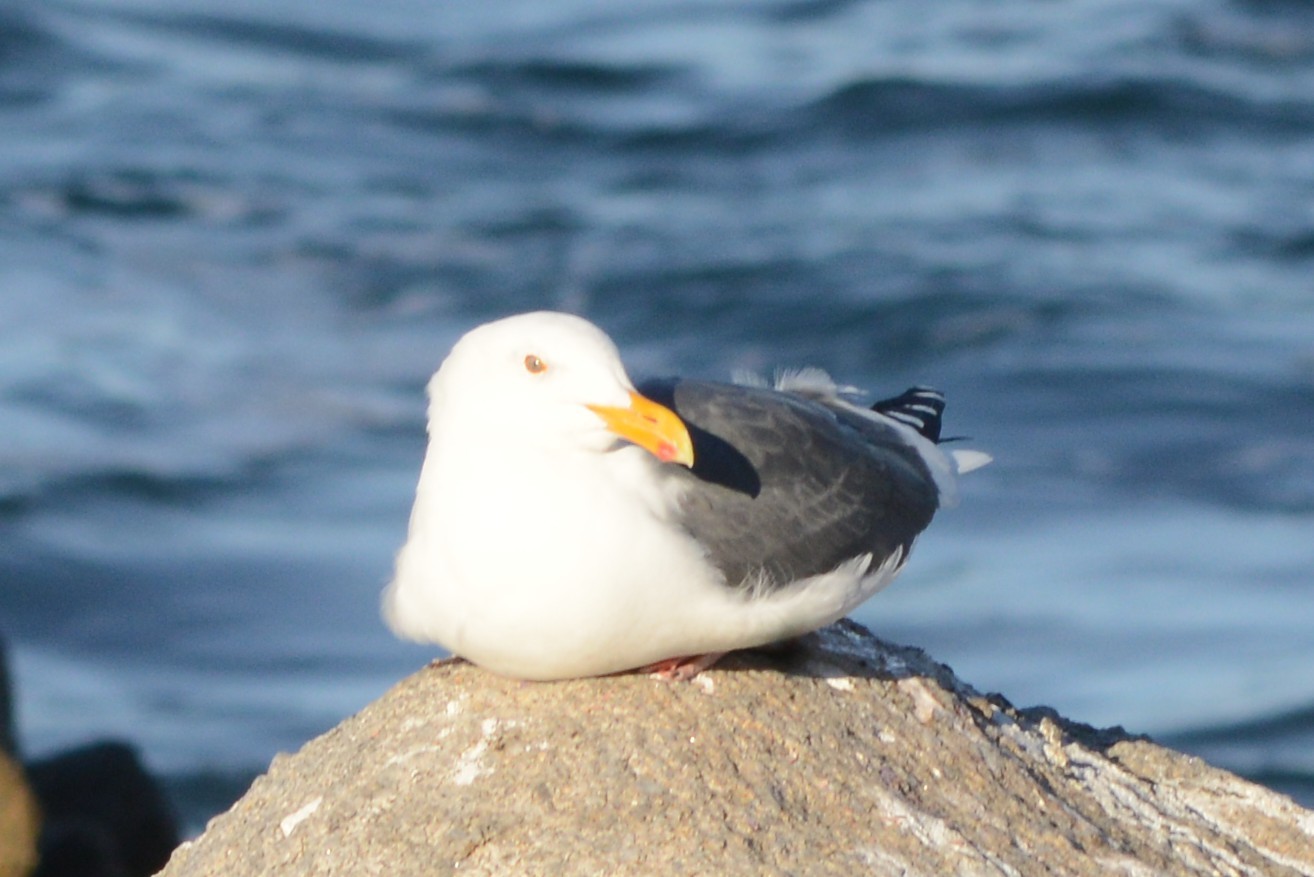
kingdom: Animalia
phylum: Chordata
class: Aves
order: Charadriiformes
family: Laridae
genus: Larus
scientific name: Larus occidentalis
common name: Western gull
